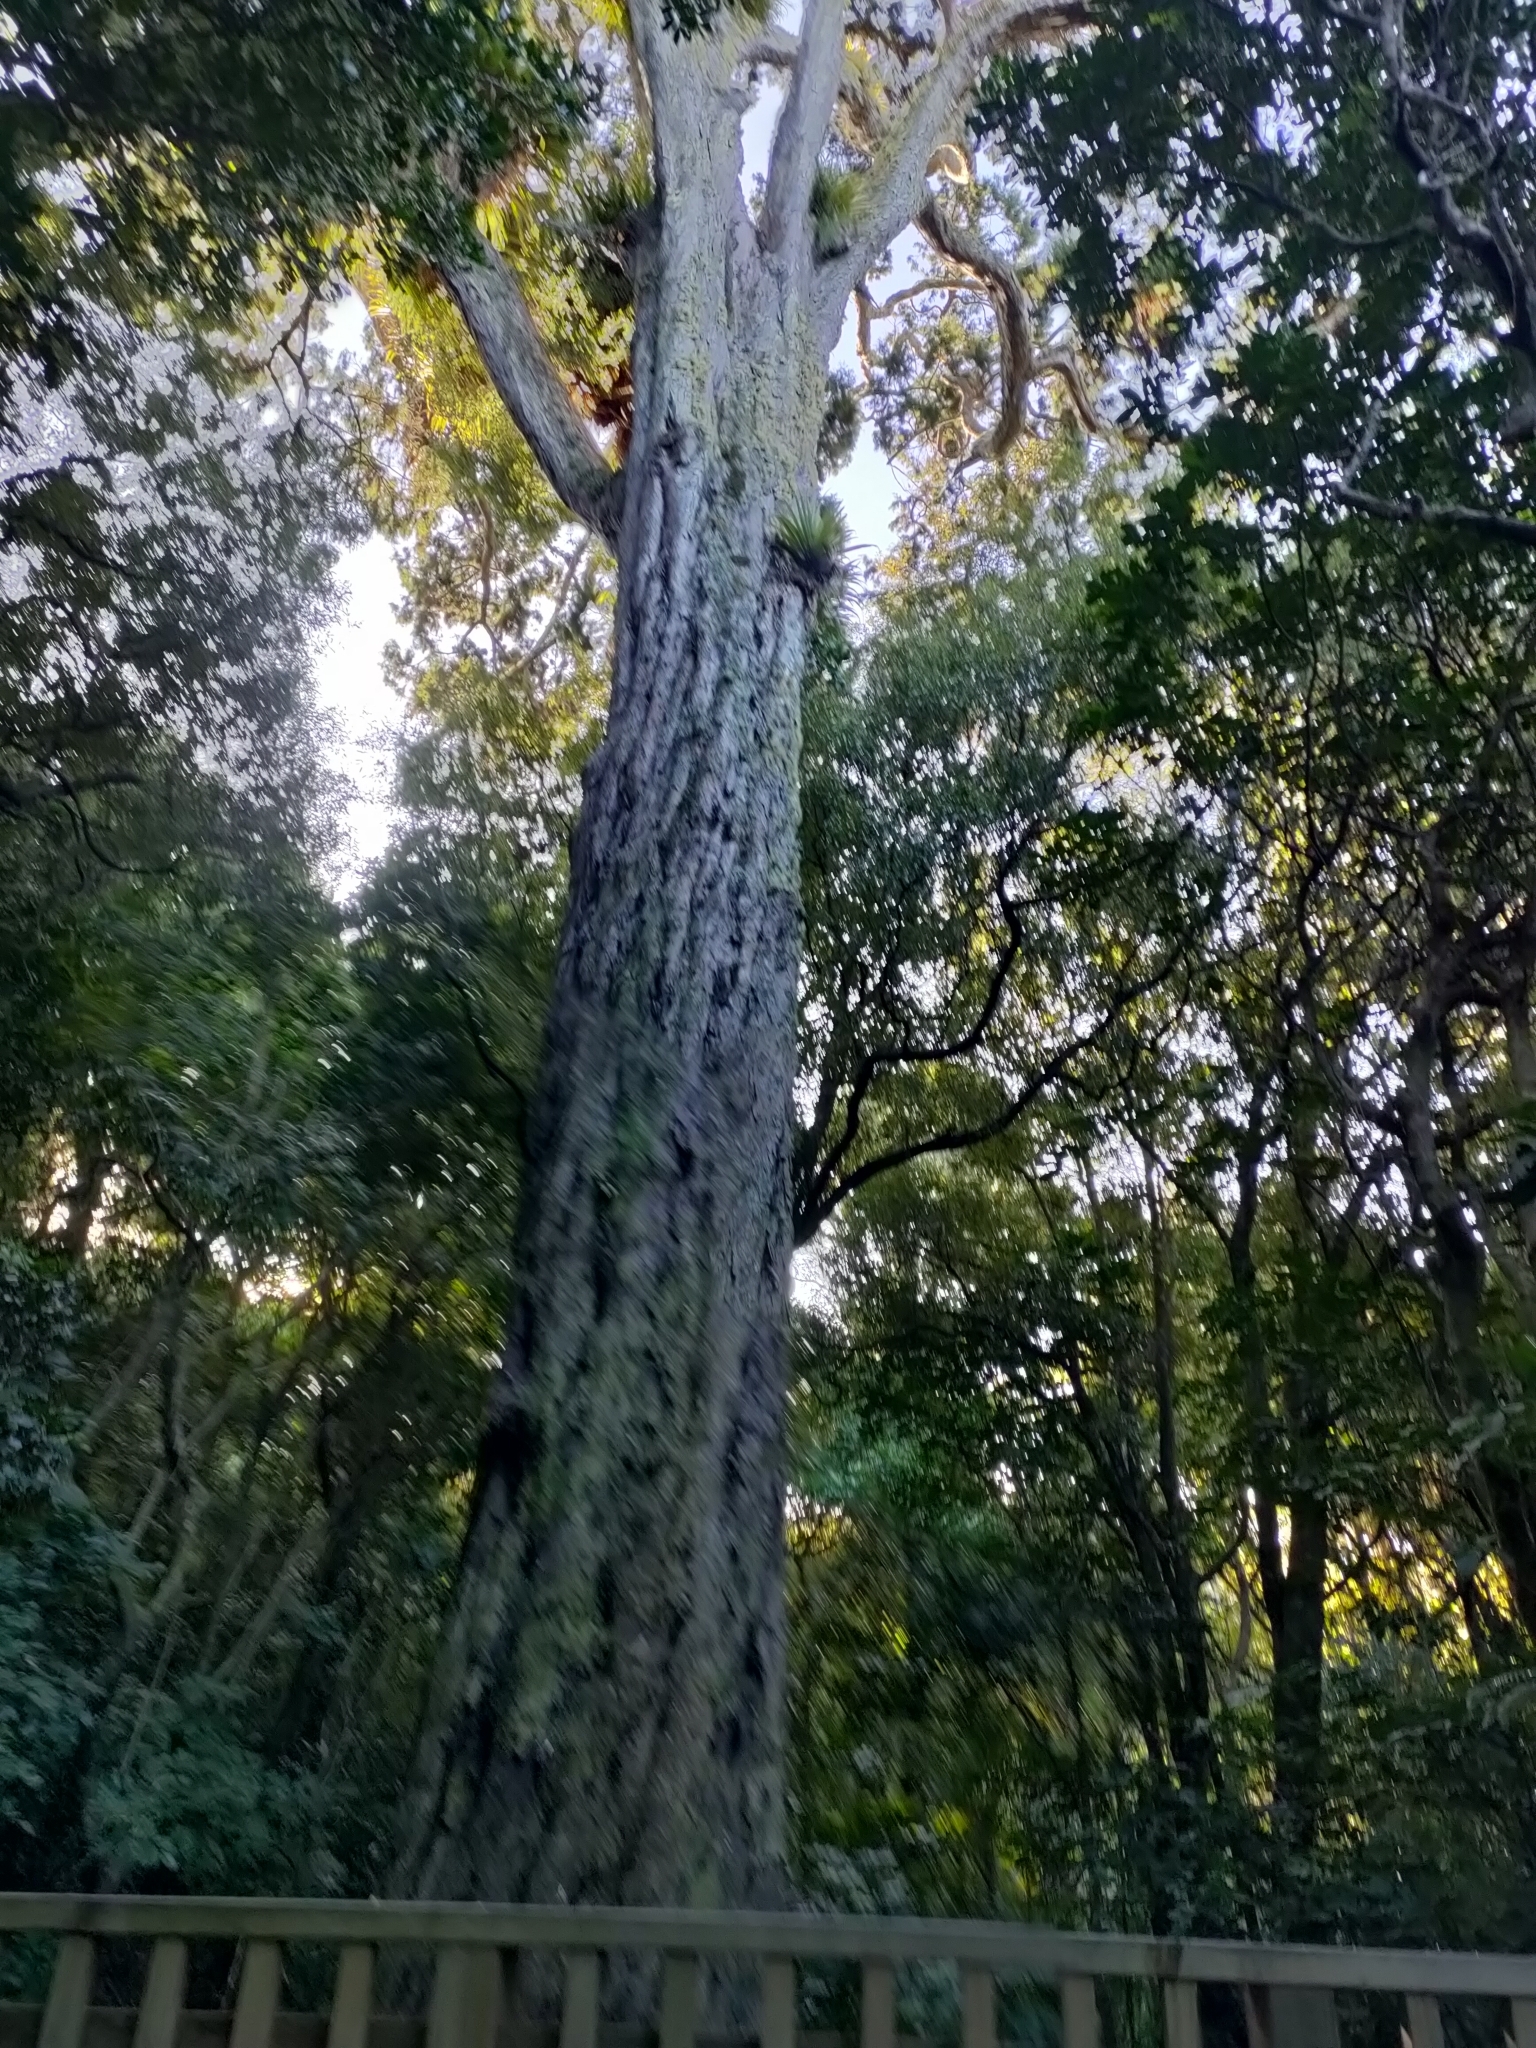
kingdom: Plantae
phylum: Tracheophyta
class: Pinopsida
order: Pinales
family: Podocarpaceae
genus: Dacrydium
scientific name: Dacrydium cupressinum
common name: Red pine
